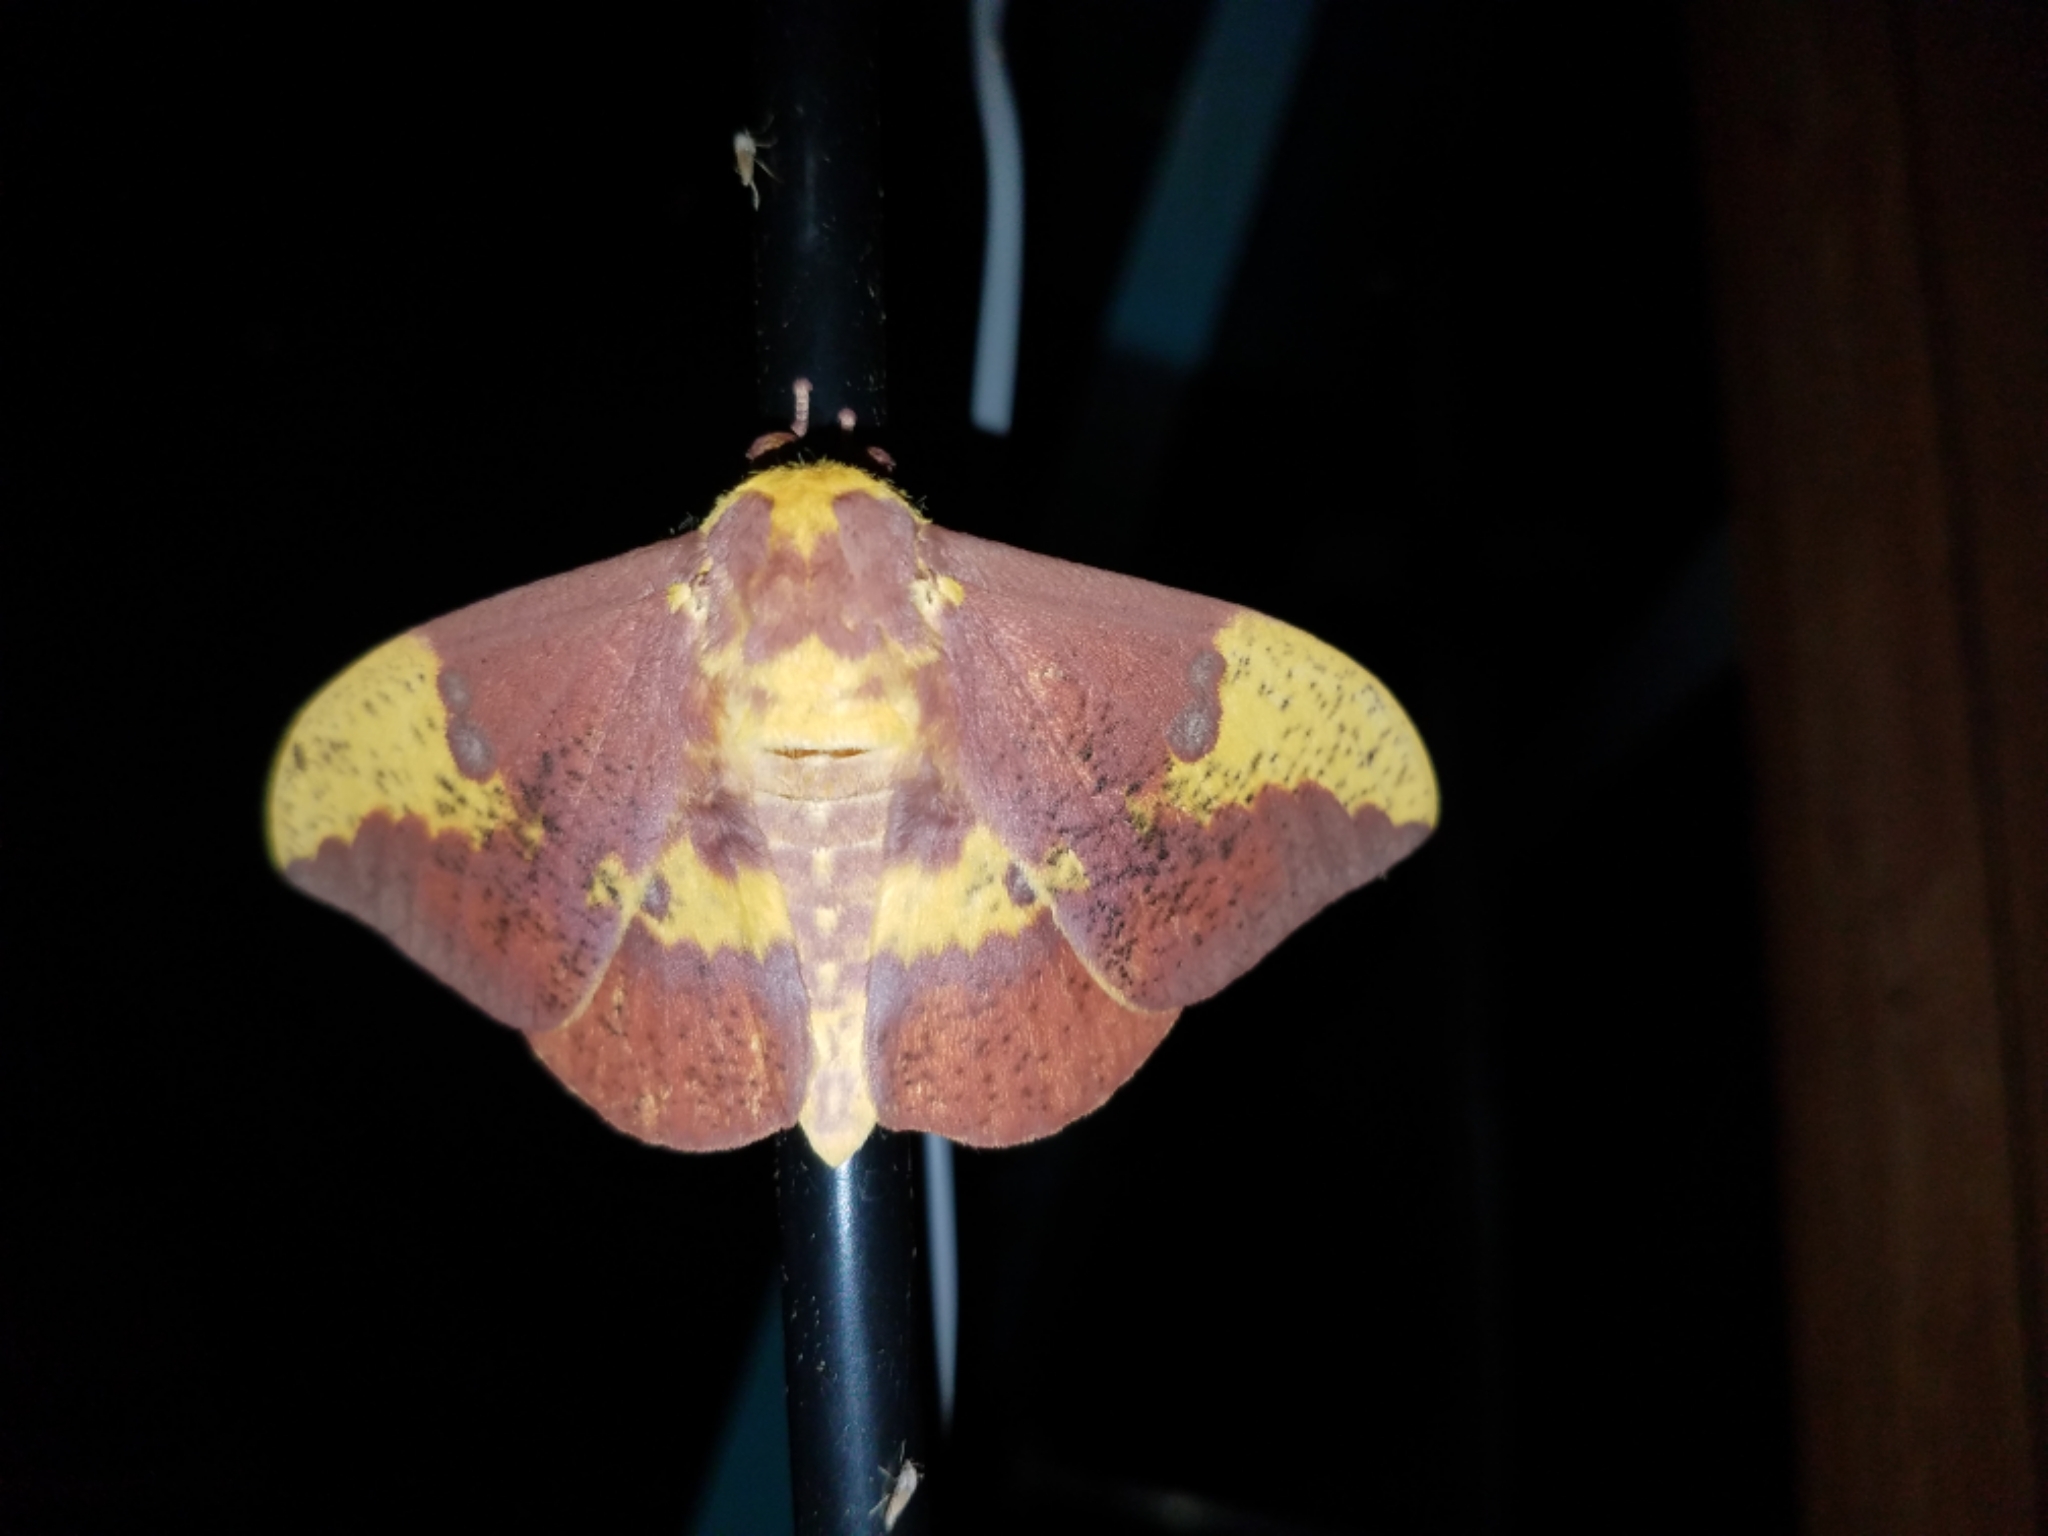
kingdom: Animalia
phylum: Arthropoda
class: Insecta
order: Lepidoptera
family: Saturniidae
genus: Eacles
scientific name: Eacles imperialis
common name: Imperial moth
